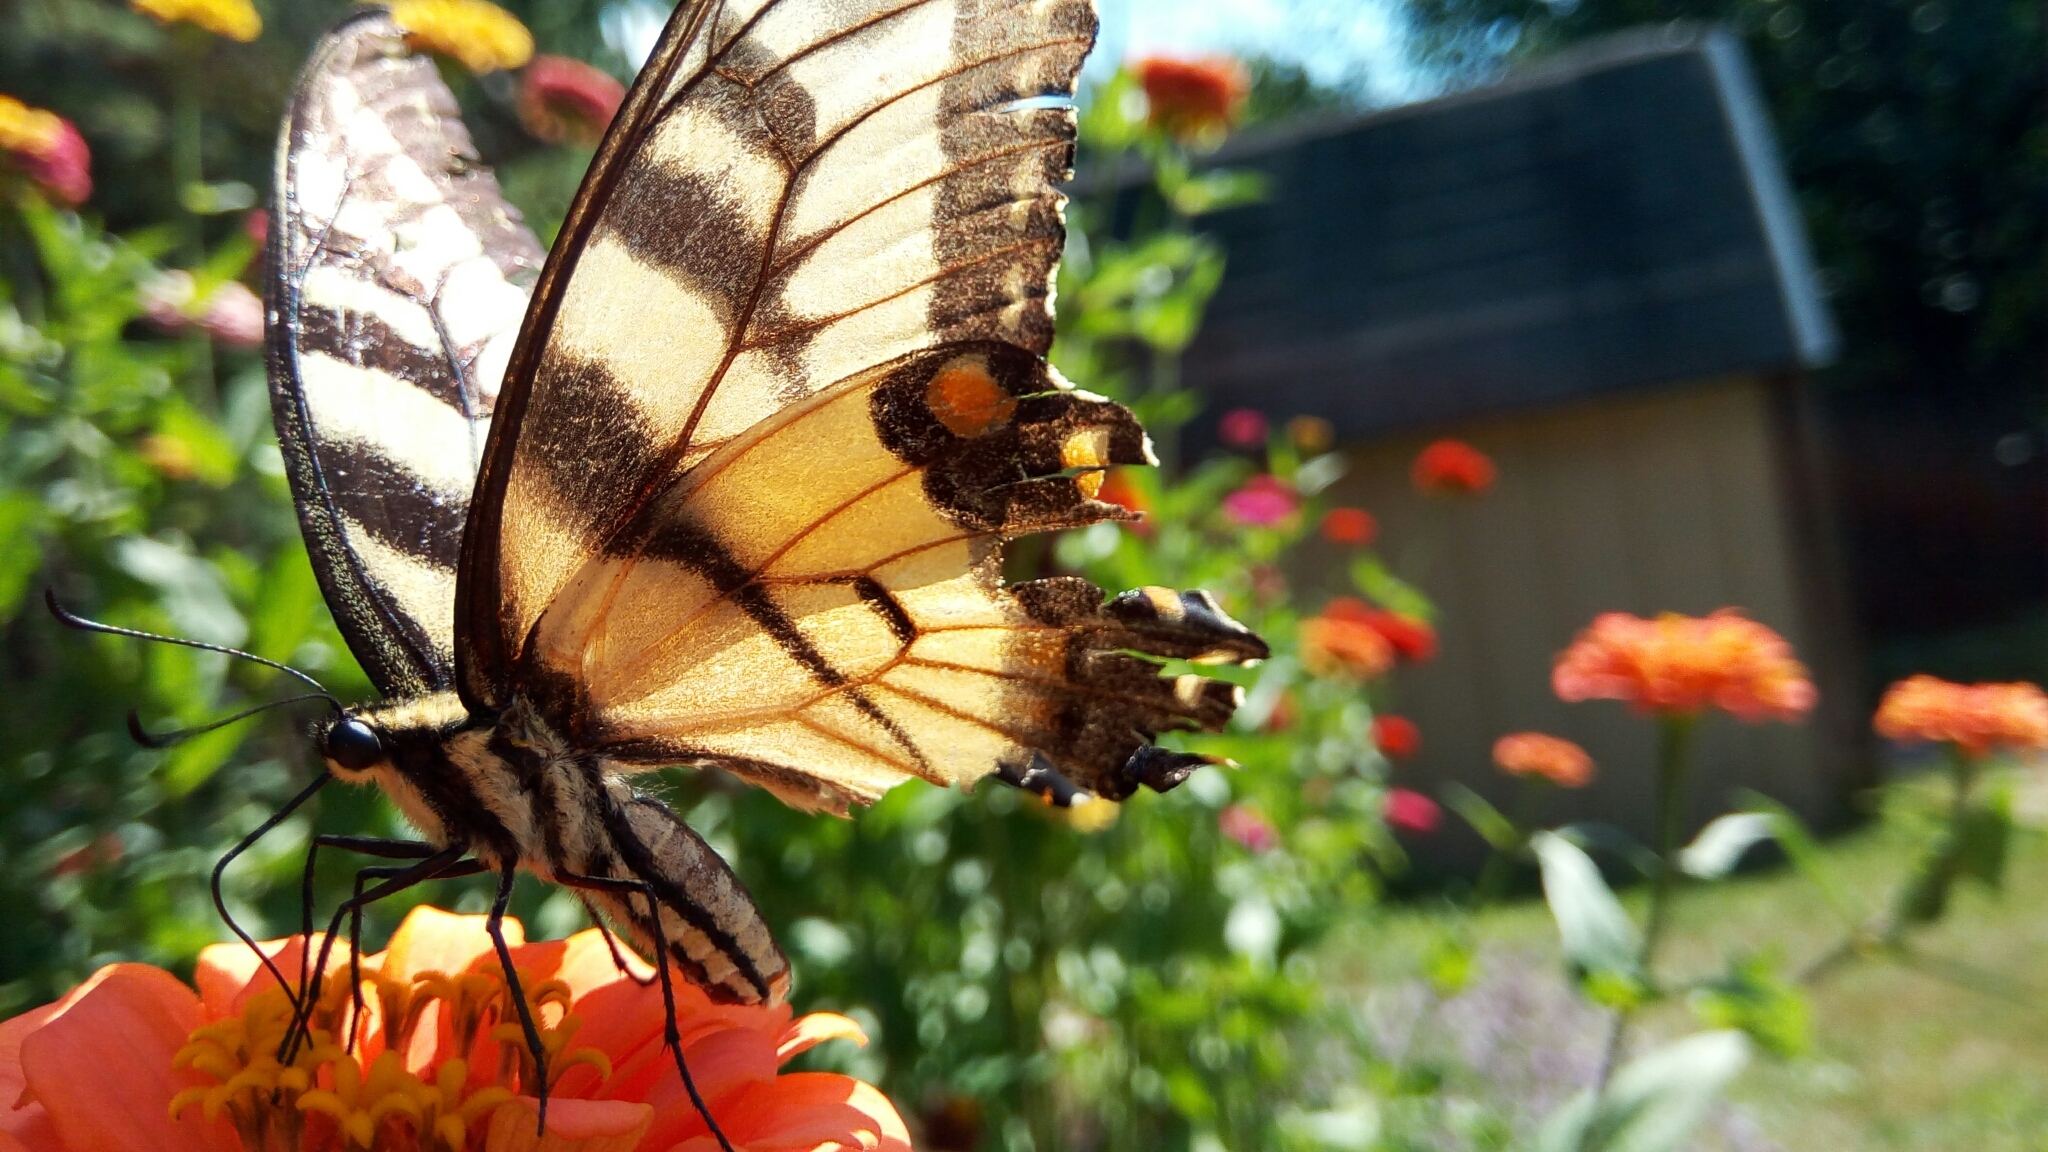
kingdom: Animalia
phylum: Arthropoda
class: Insecta
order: Lepidoptera
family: Papilionidae
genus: Papilio
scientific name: Papilio glaucus
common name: Tiger swallowtail
